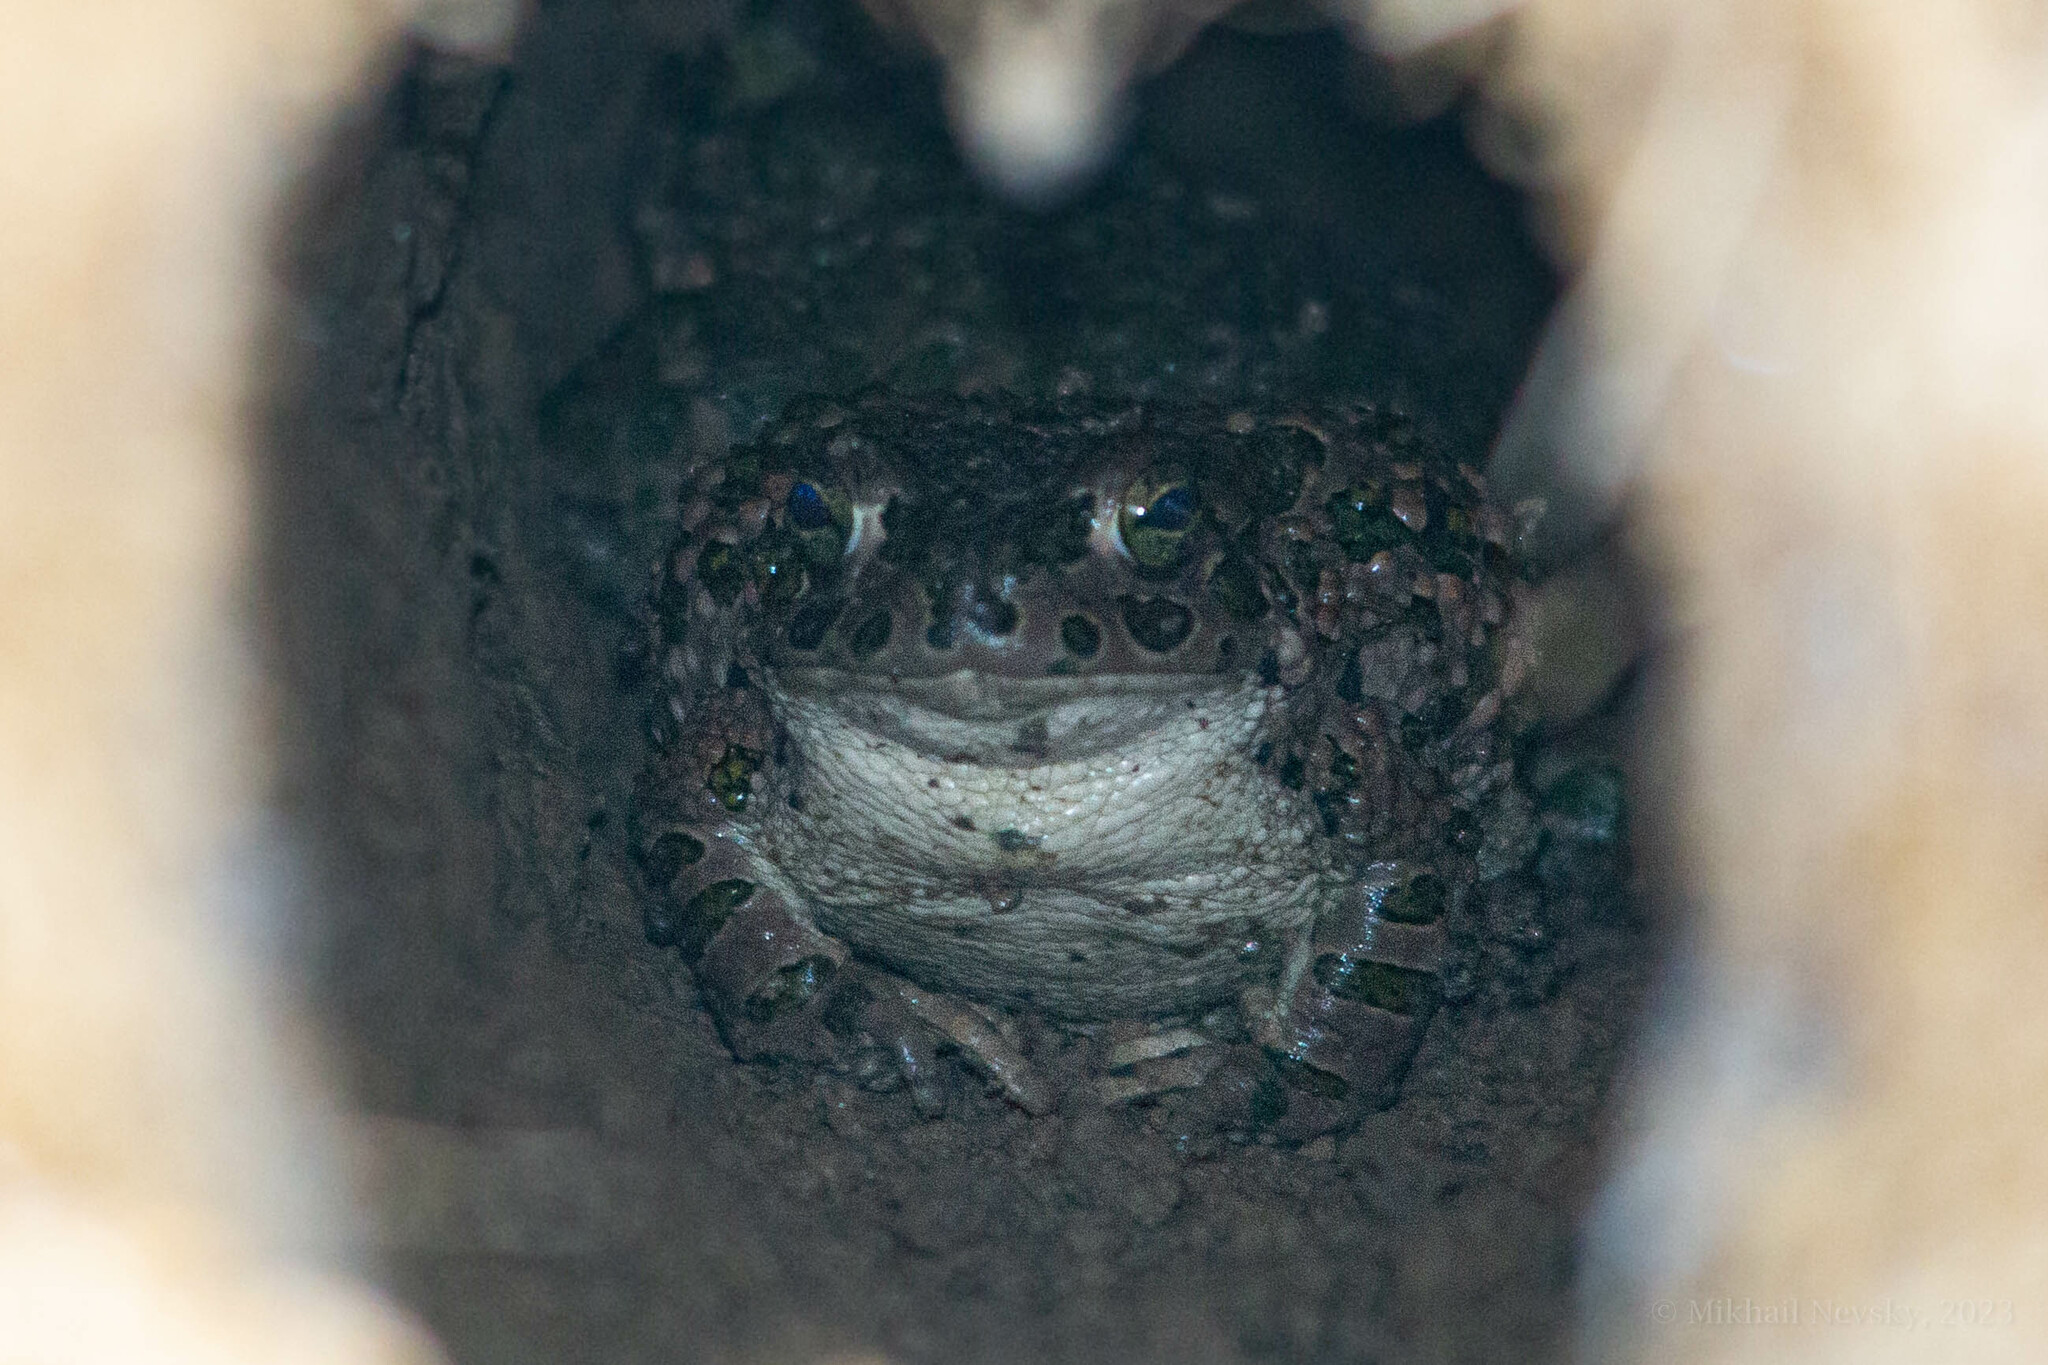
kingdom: Animalia
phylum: Chordata
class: Amphibia
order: Anura
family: Bufonidae
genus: Bufotes
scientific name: Bufotes viridis
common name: European green toad
